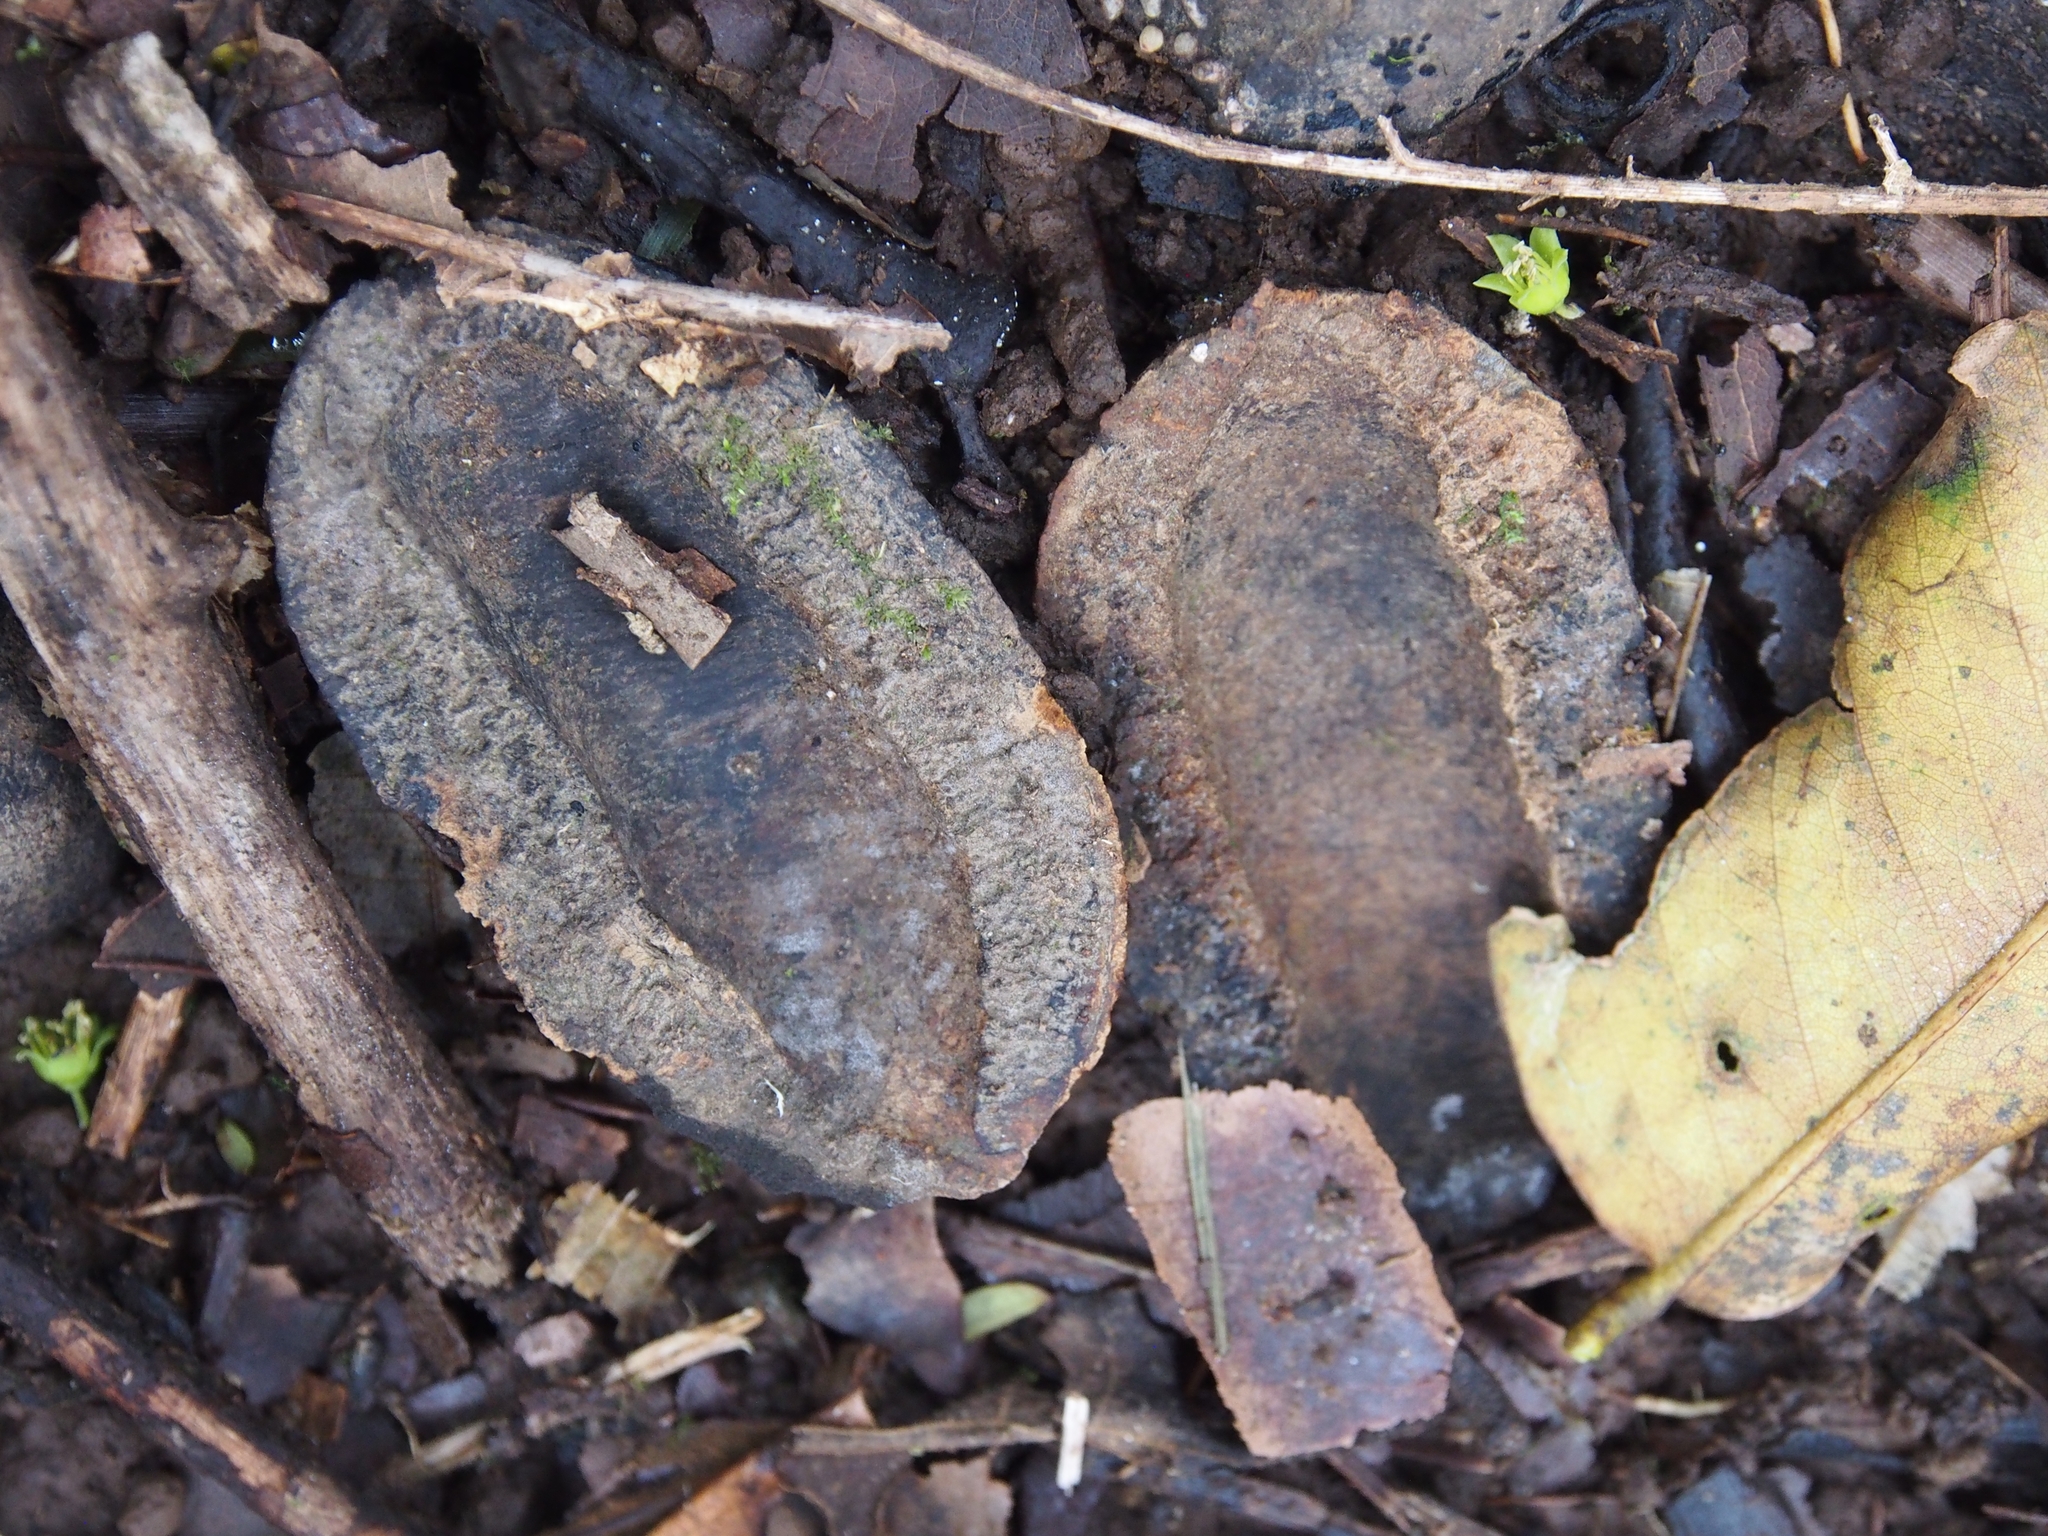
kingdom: Plantae
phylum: Tracheophyta
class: Magnoliopsida
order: Fabales
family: Fabaceae
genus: Dipteryx
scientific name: Dipteryx oleifera
